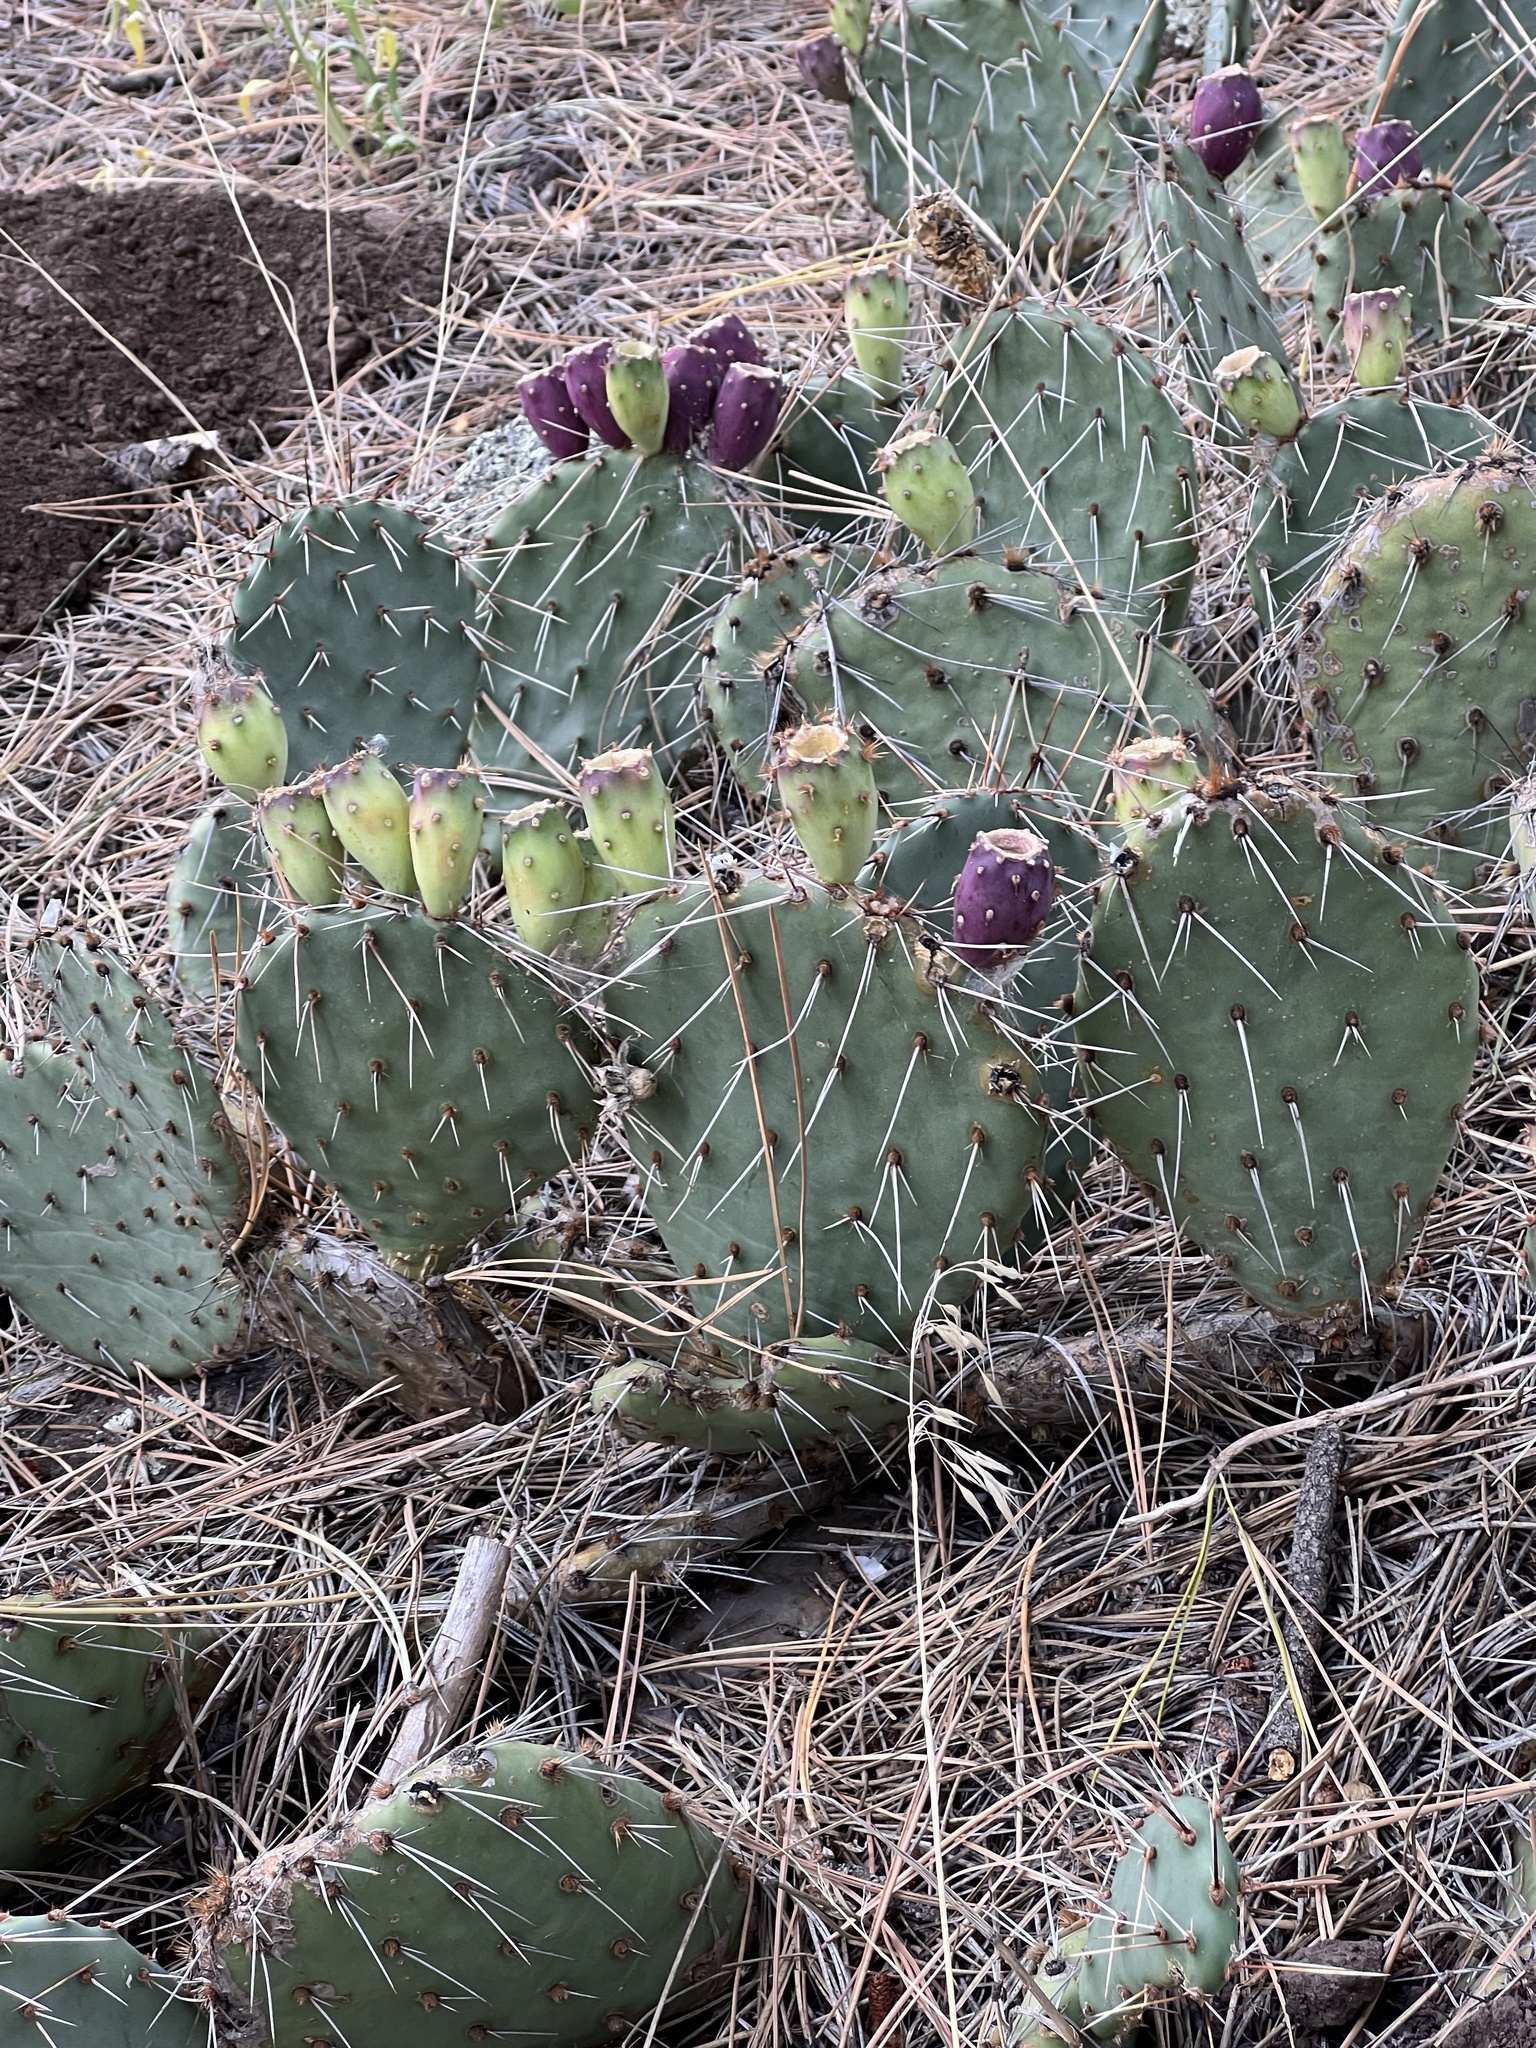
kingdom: Plantae
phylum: Tracheophyta
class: Magnoliopsida
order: Caryophyllales
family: Cactaceae
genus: Opuntia
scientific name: Opuntia phaeacantha
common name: New mexico prickly-pear
